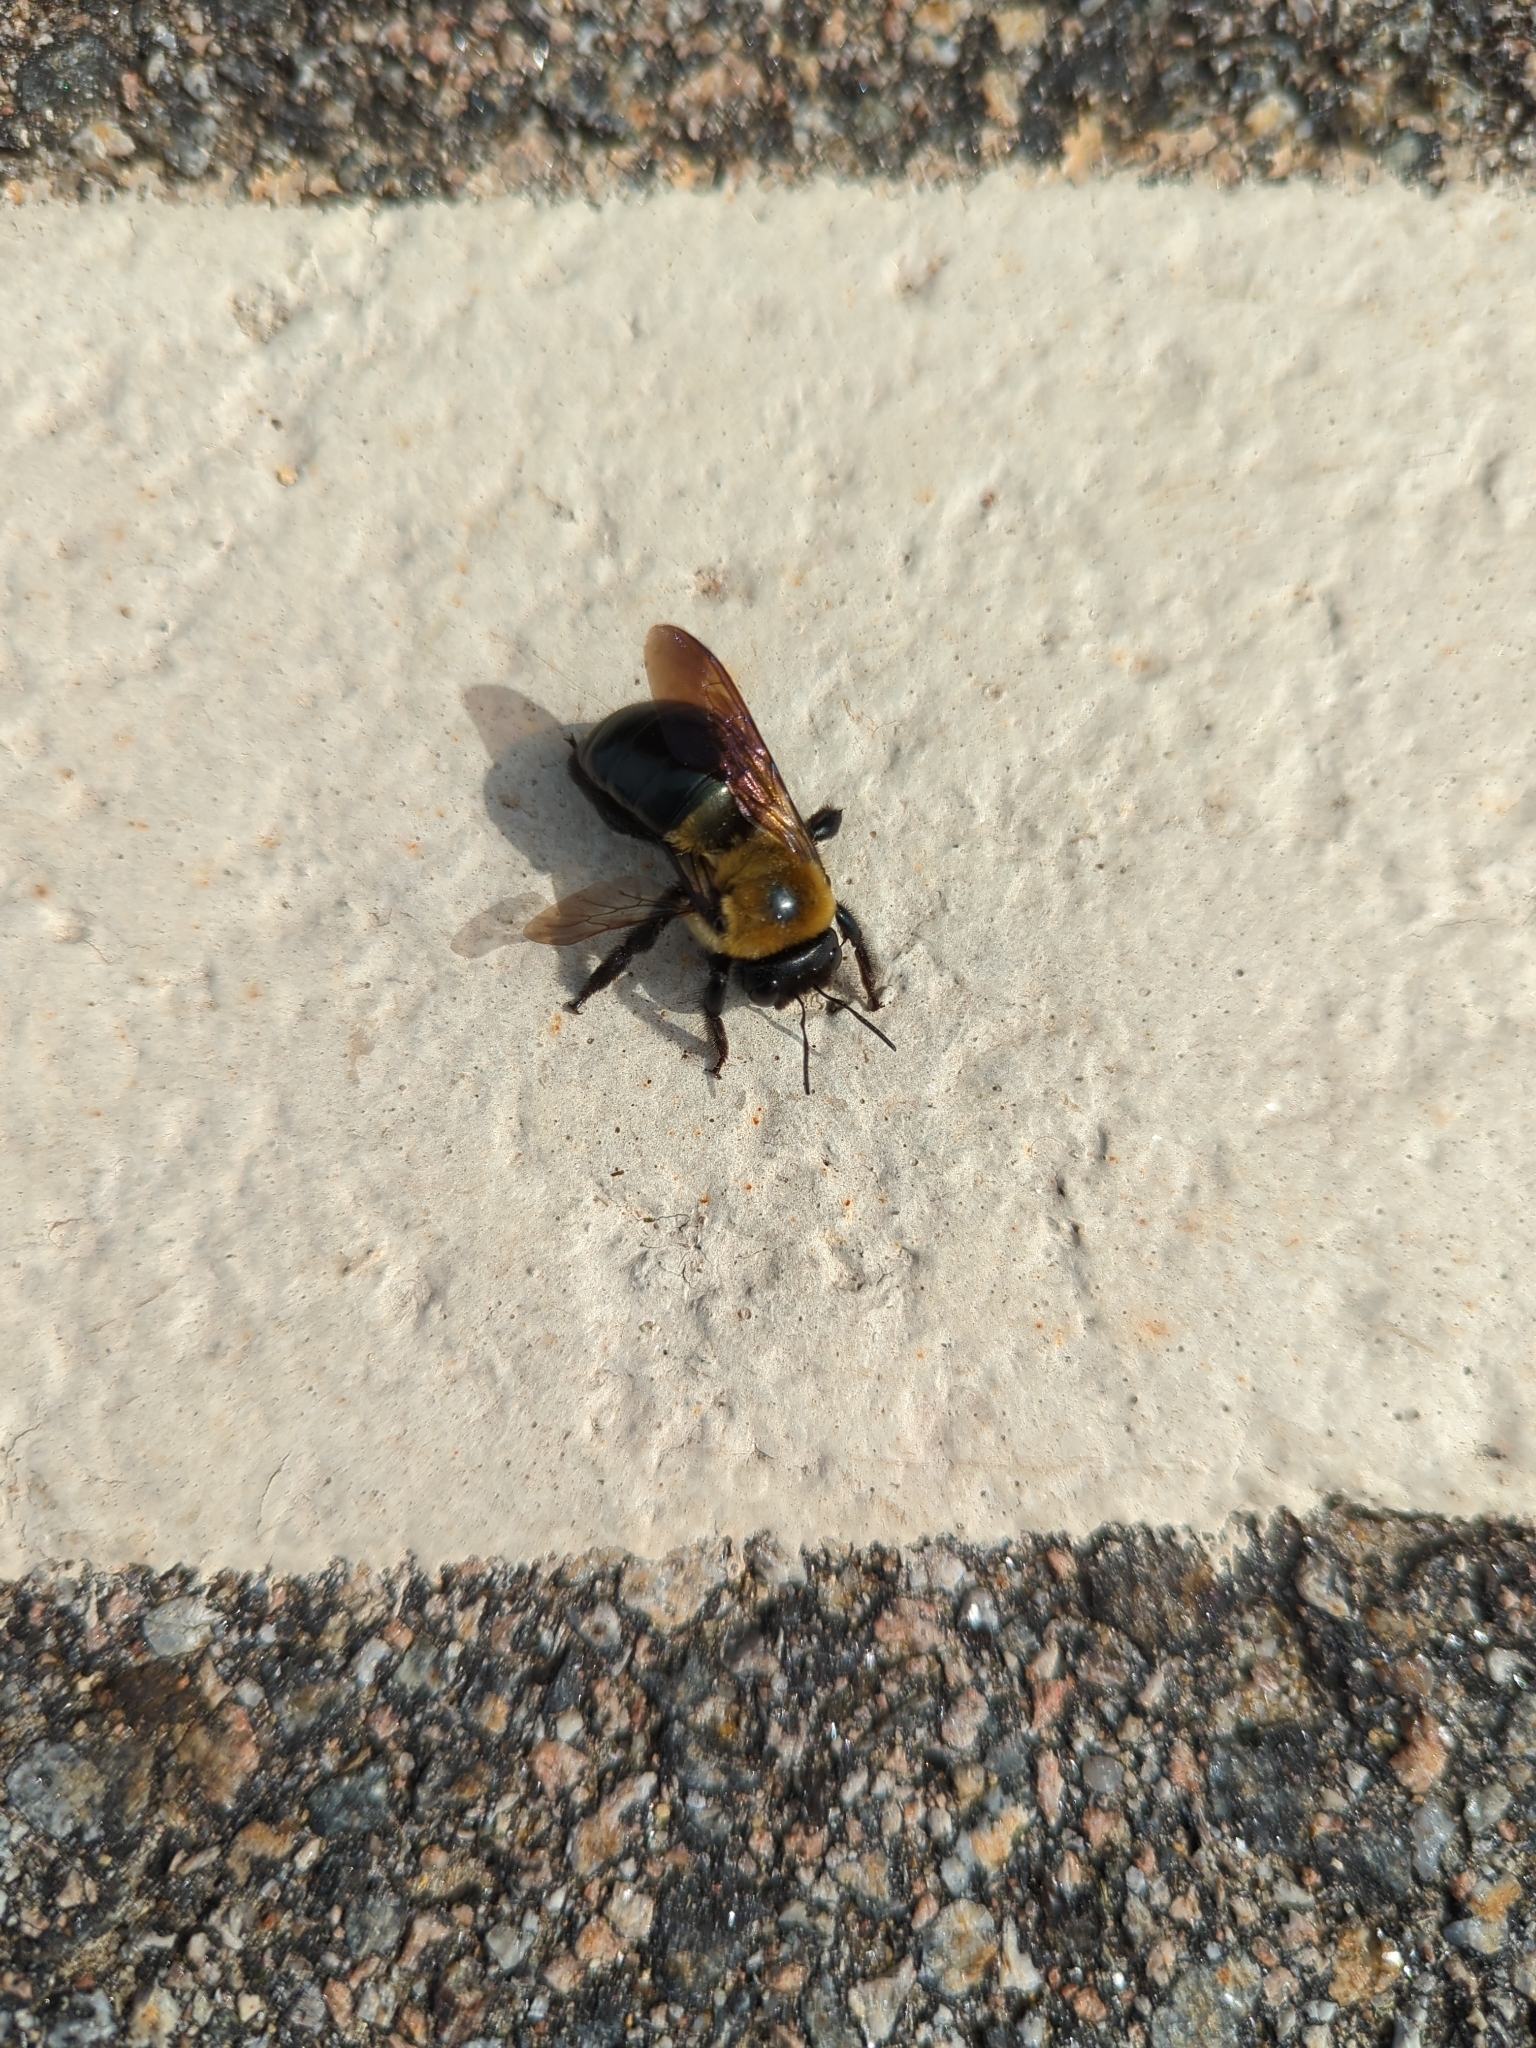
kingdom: Animalia
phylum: Arthropoda
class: Insecta
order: Hymenoptera
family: Apidae
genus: Xylocopa
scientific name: Xylocopa virginica
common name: Carpenter bee
